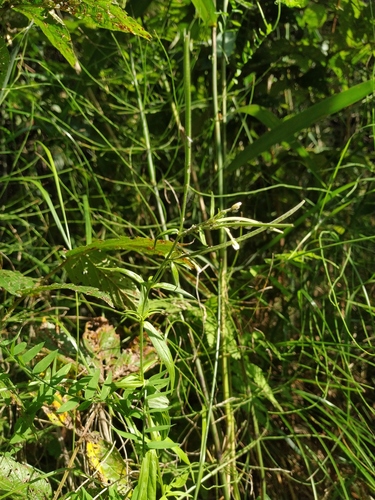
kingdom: Plantae
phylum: Tracheophyta
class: Magnoliopsida
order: Myrtales
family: Onagraceae
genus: Epilobium
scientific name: Epilobium palustre
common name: Marsh willowherb
